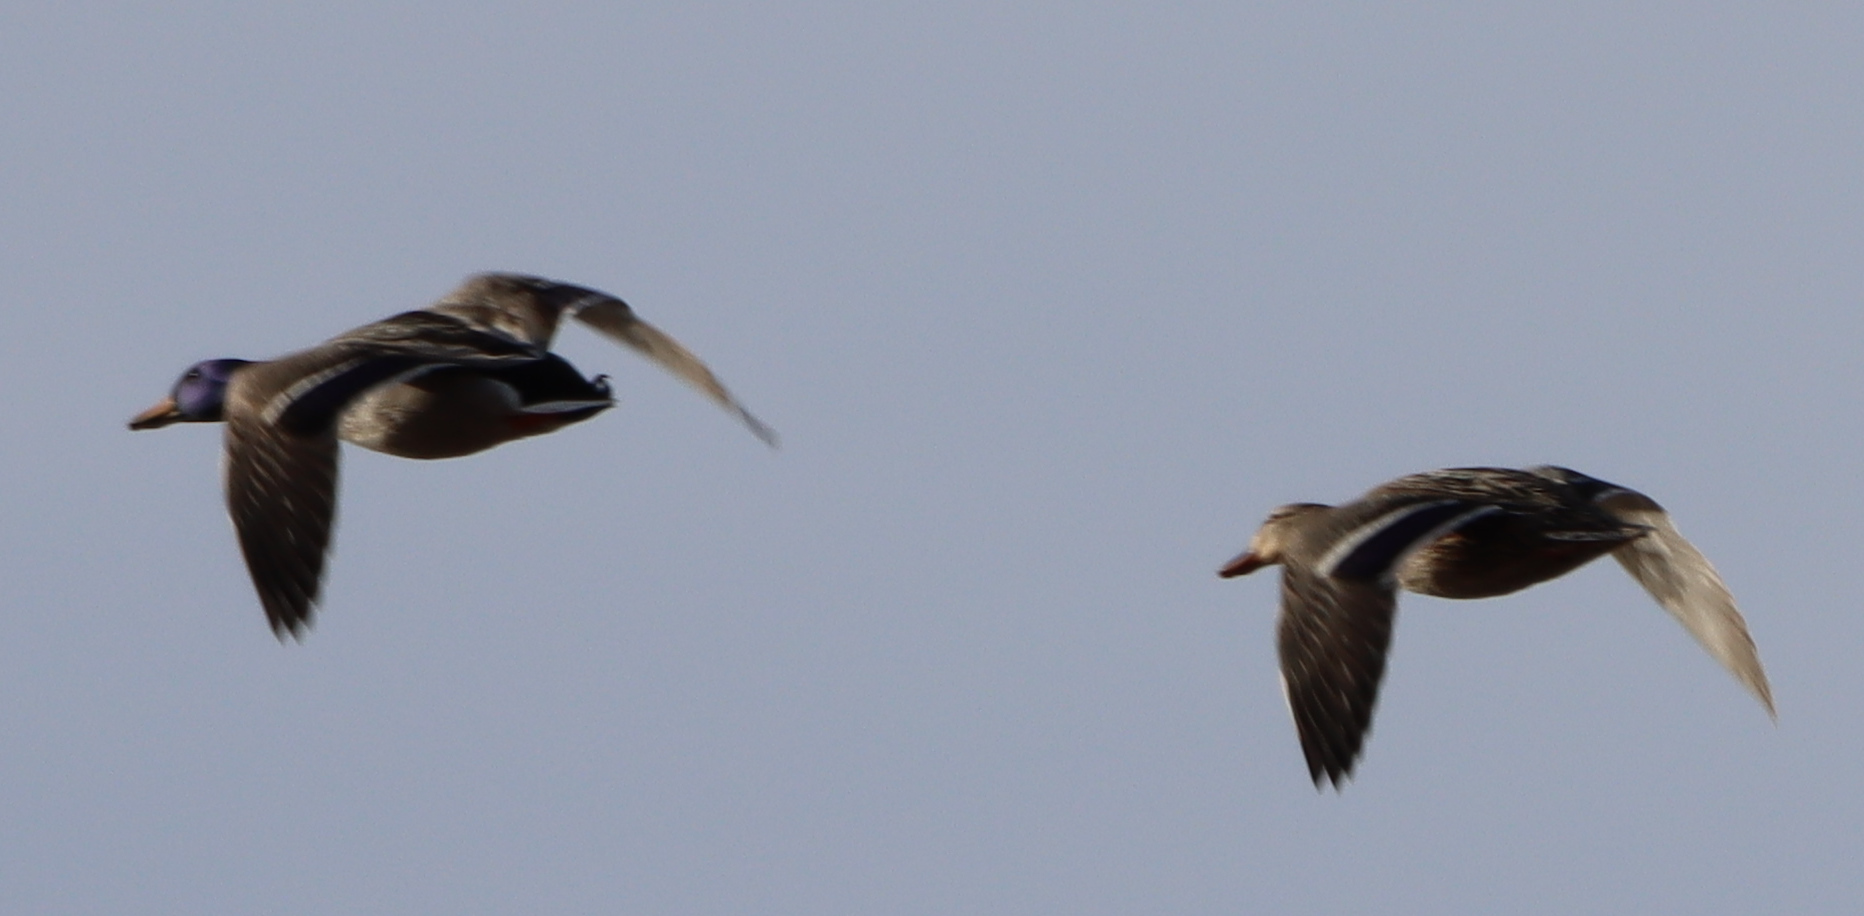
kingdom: Animalia
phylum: Chordata
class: Aves
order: Anseriformes
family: Anatidae
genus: Anas
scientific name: Anas platyrhynchos
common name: Mallard
